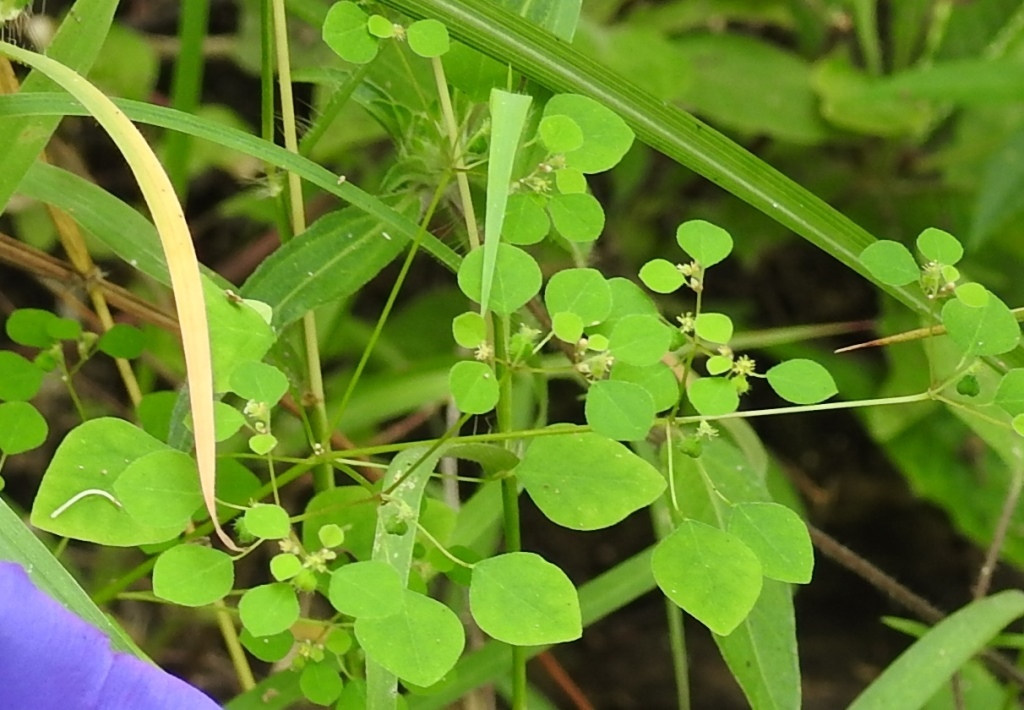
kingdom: Plantae
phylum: Tracheophyta
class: Magnoliopsida
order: Malpighiales
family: Euphorbiaceae
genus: Euphorbia
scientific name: Euphorbia ocymoidea
